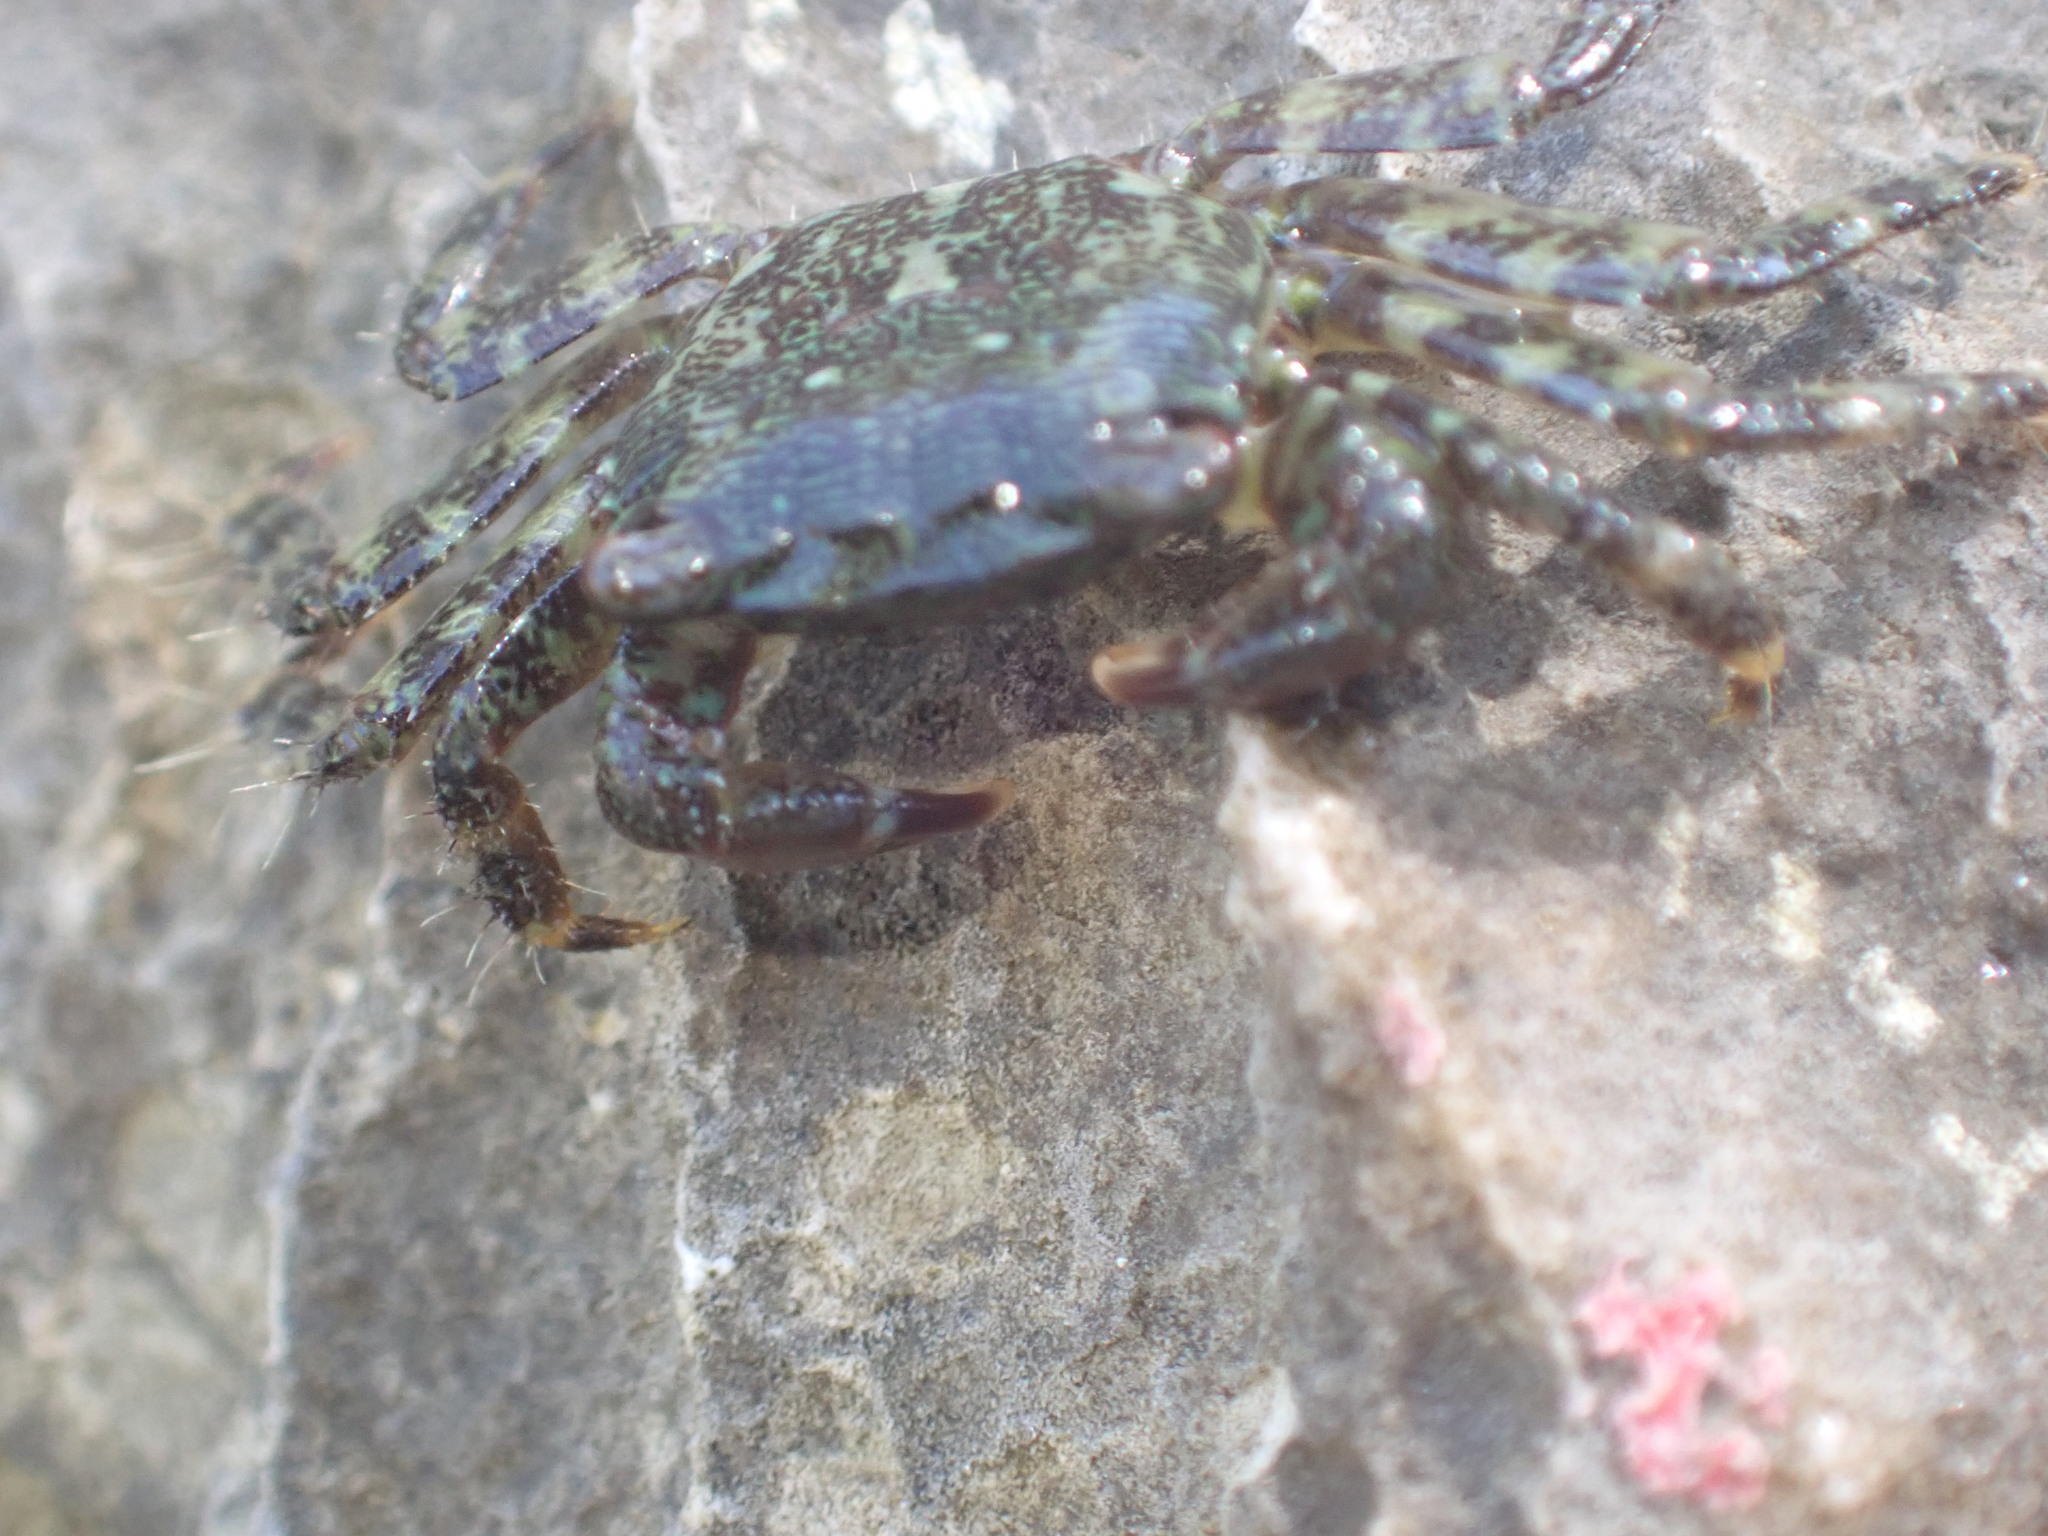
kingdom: Animalia
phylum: Arthropoda
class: Malacostraca
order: Decapoda
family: Grapsidae
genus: Pachygrapsus
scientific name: Pachygrapsus marmoratus
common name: Marbled rock crab
